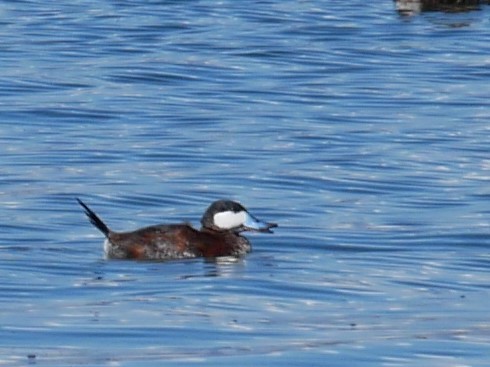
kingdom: Animalia
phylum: Chordata
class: Aves
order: Anseriformes
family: Anatidae
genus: Oxyura
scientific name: Oxyura jamaicensis
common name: Ruddy duck
